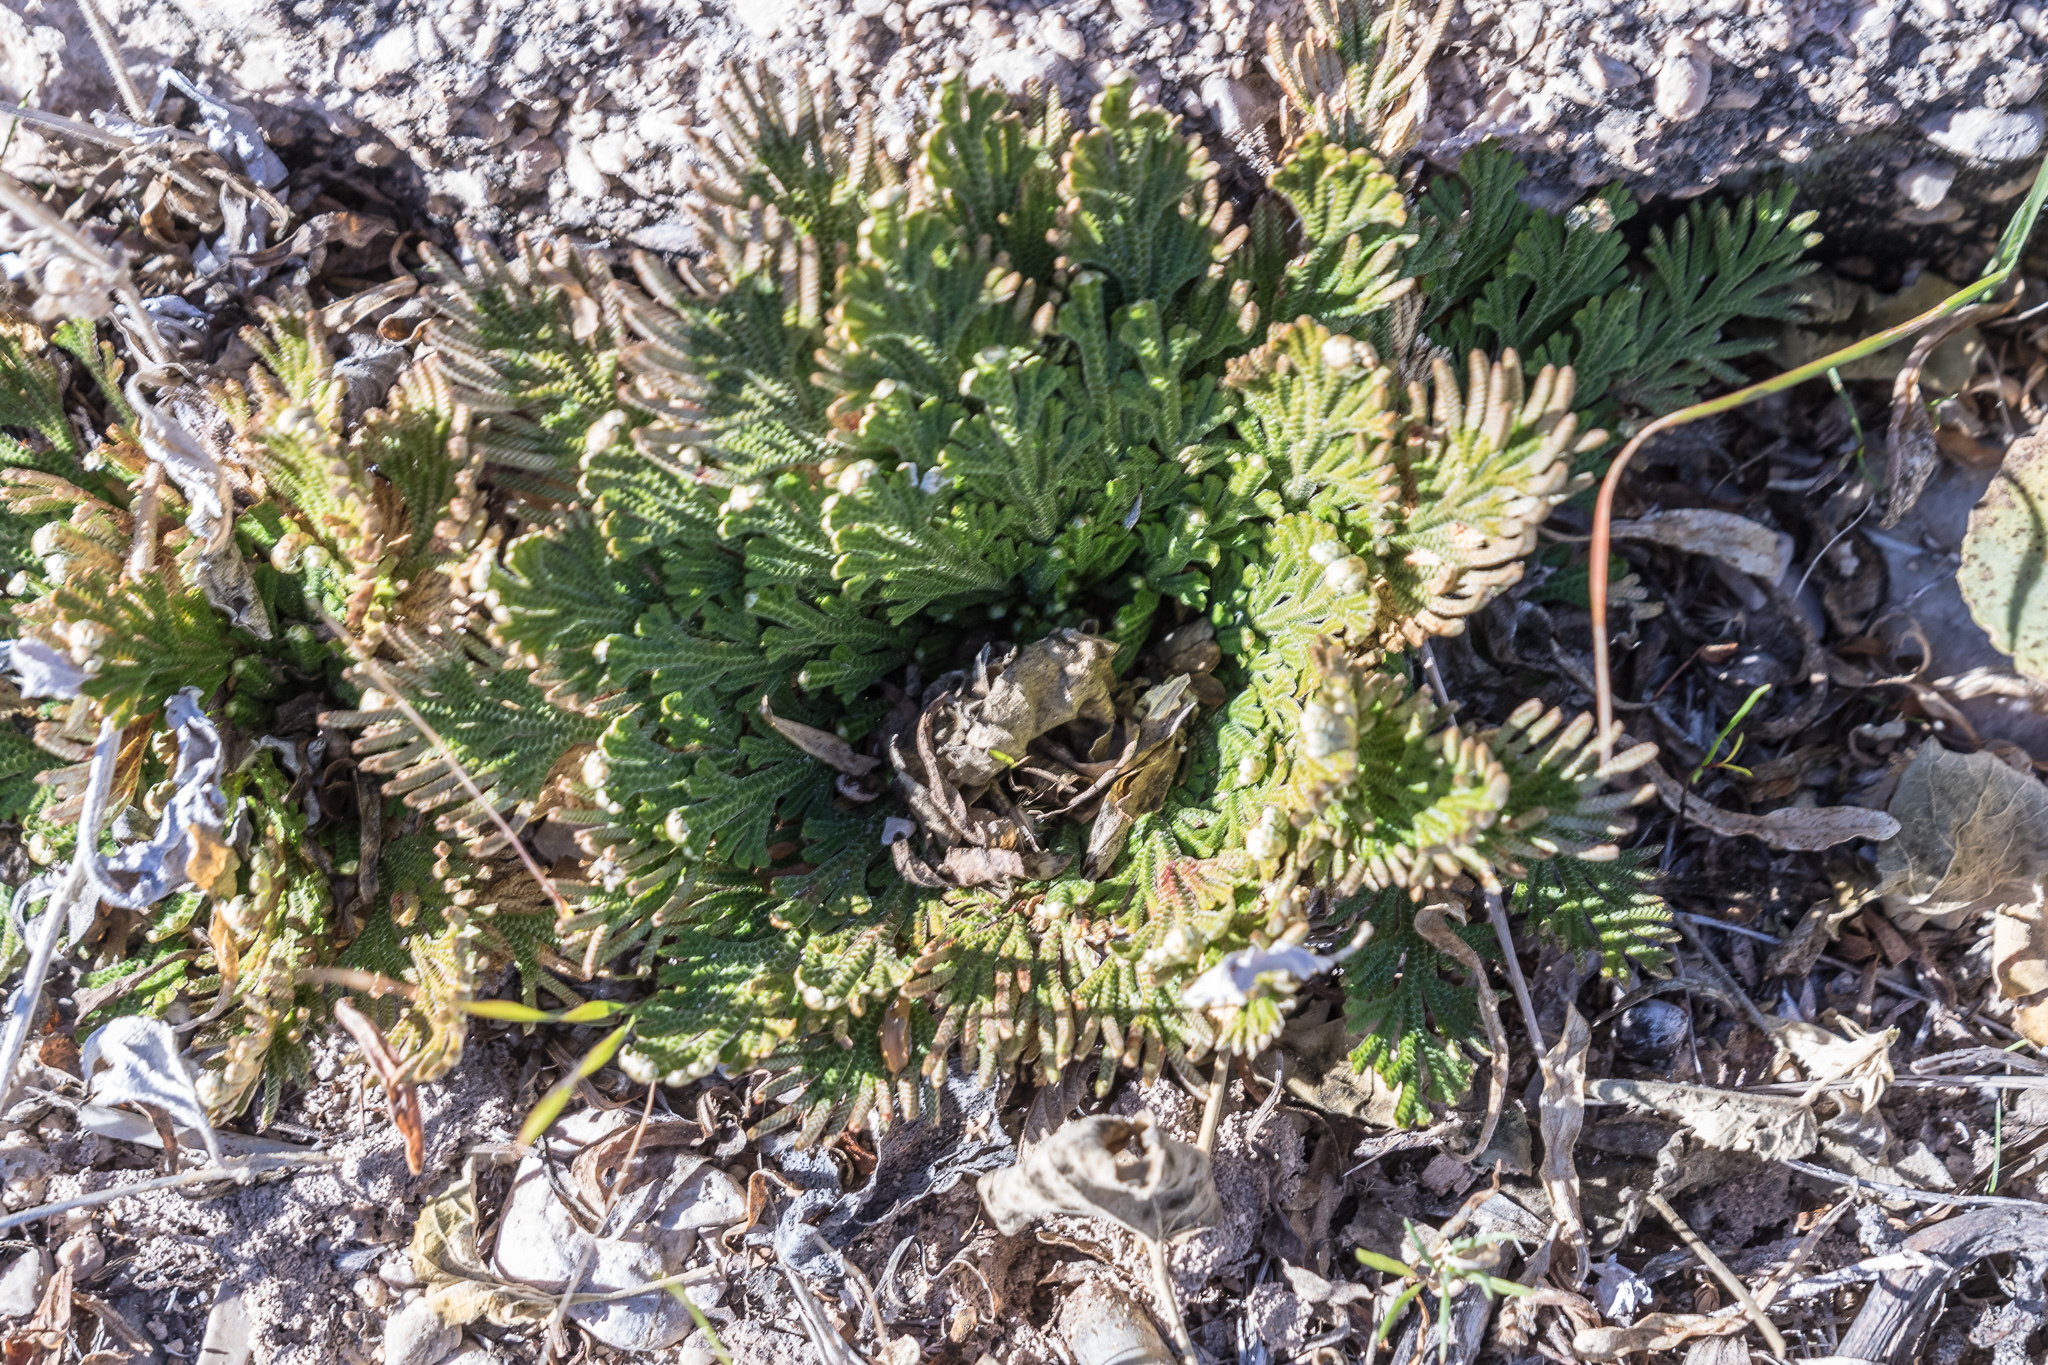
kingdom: Plantae
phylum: Tracheophyta
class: Lycopodiopsida
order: Selaginellales
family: Selaginellaceae
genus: Selaginella
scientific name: Selaginella lepidophylla
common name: Rose-of-jericho
